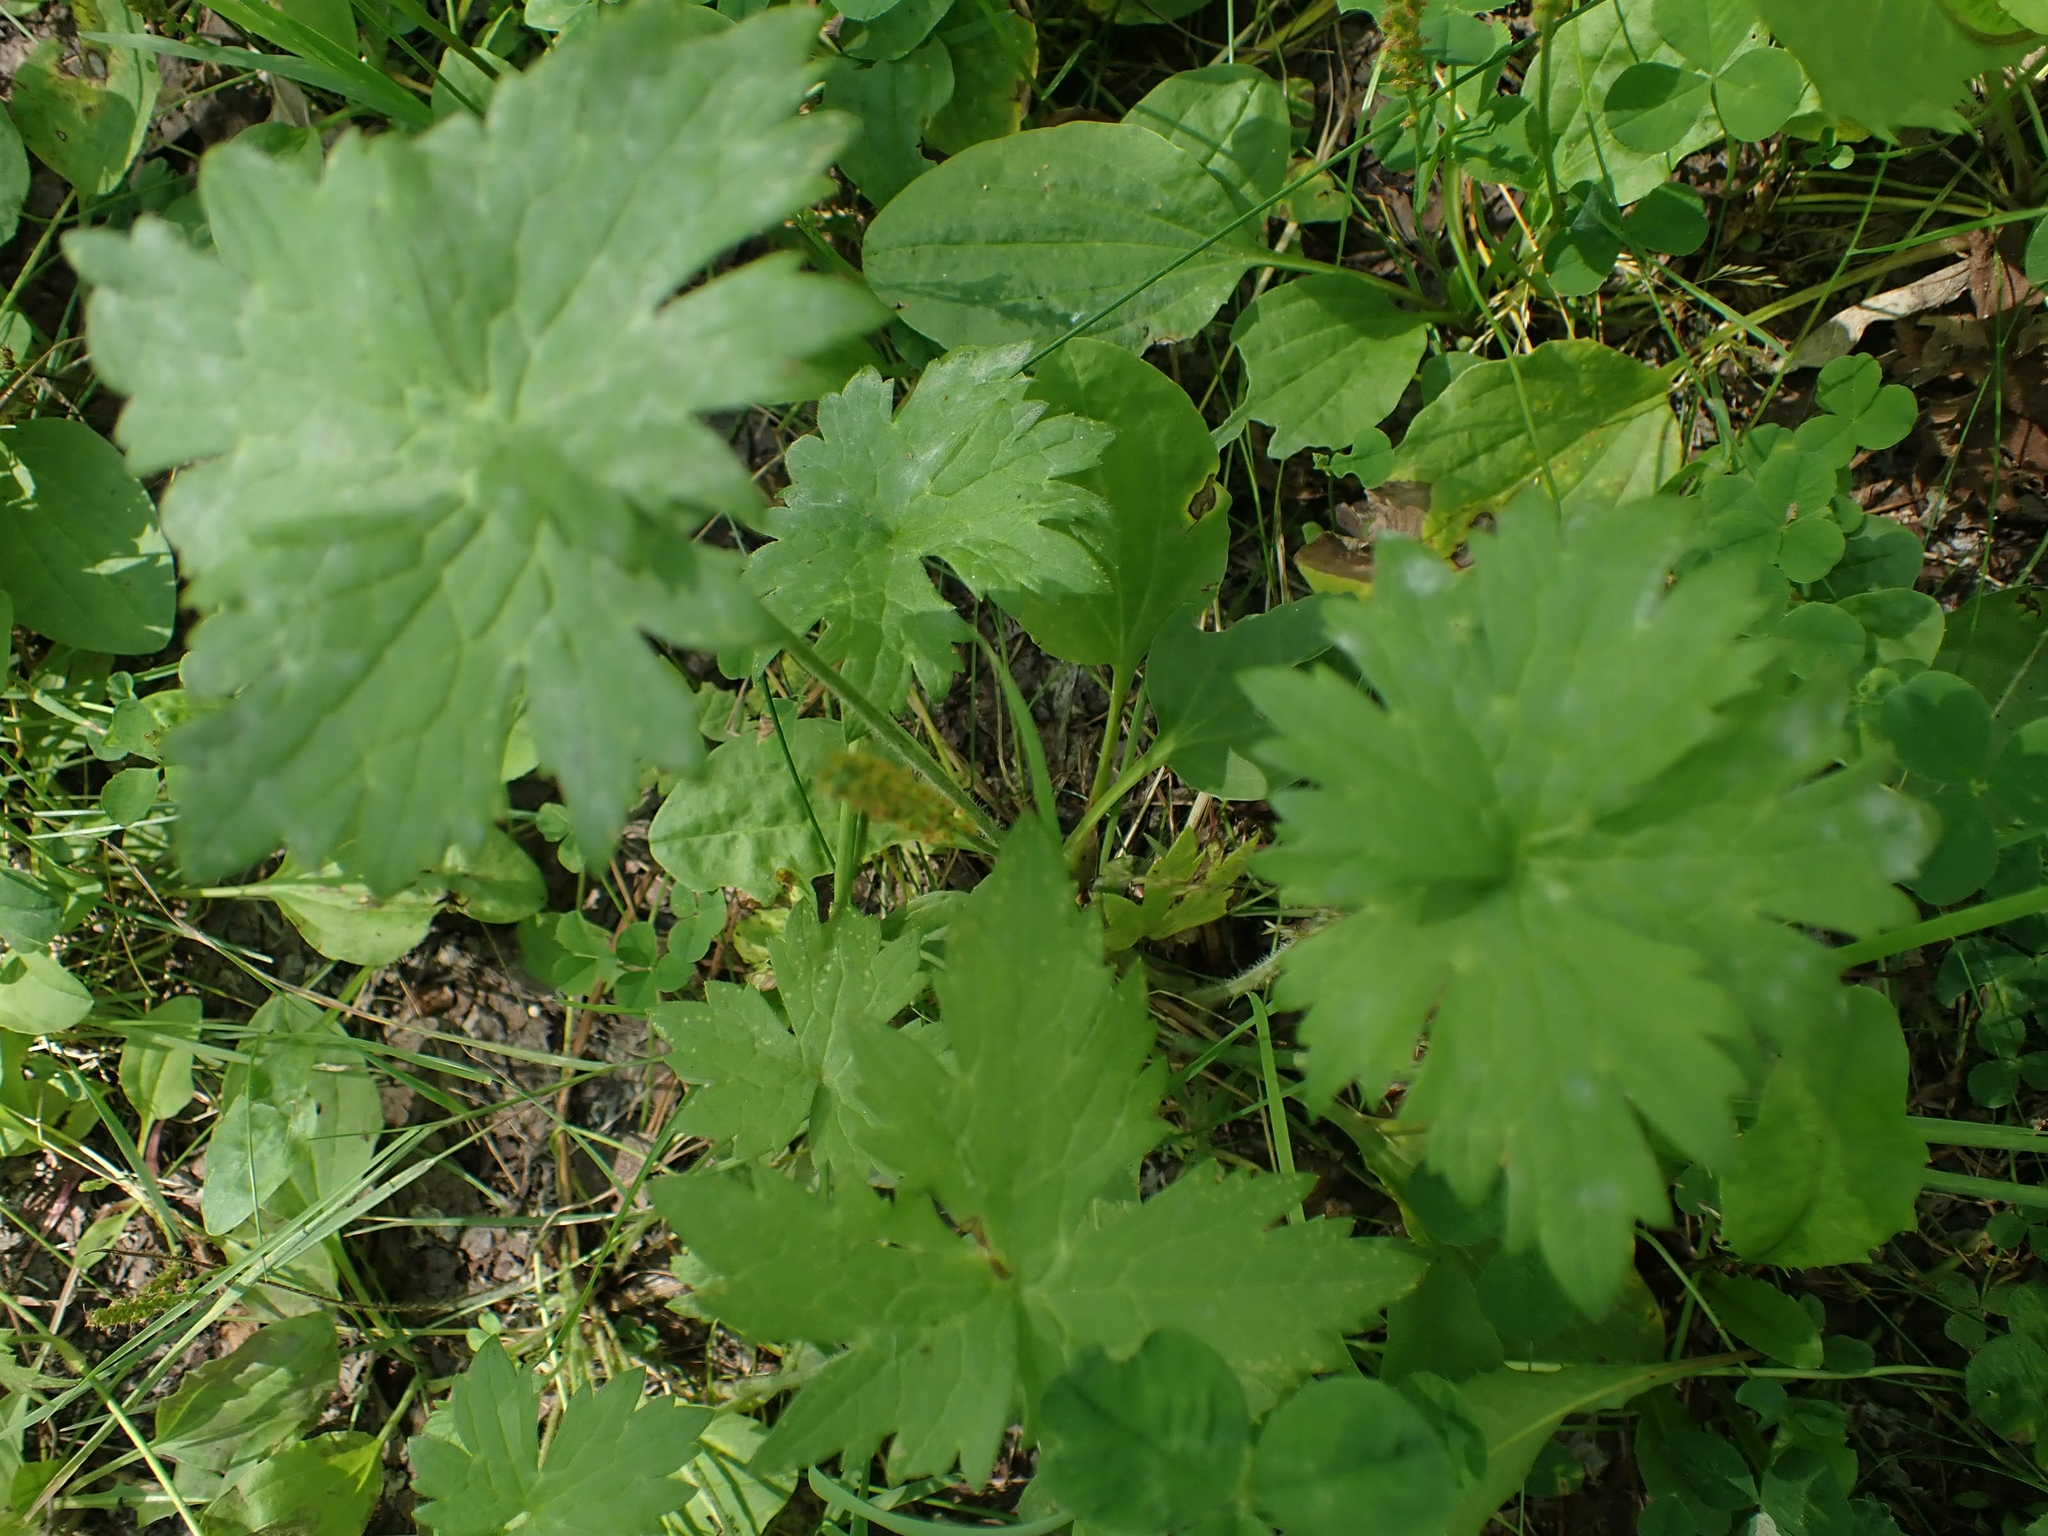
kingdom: Plantae
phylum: Tracheophyta
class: Magnoliopsida
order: Ranunculales
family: Ranunculaceae
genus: Ranunculus
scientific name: Ranunculus acris
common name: Meadow buttercup
